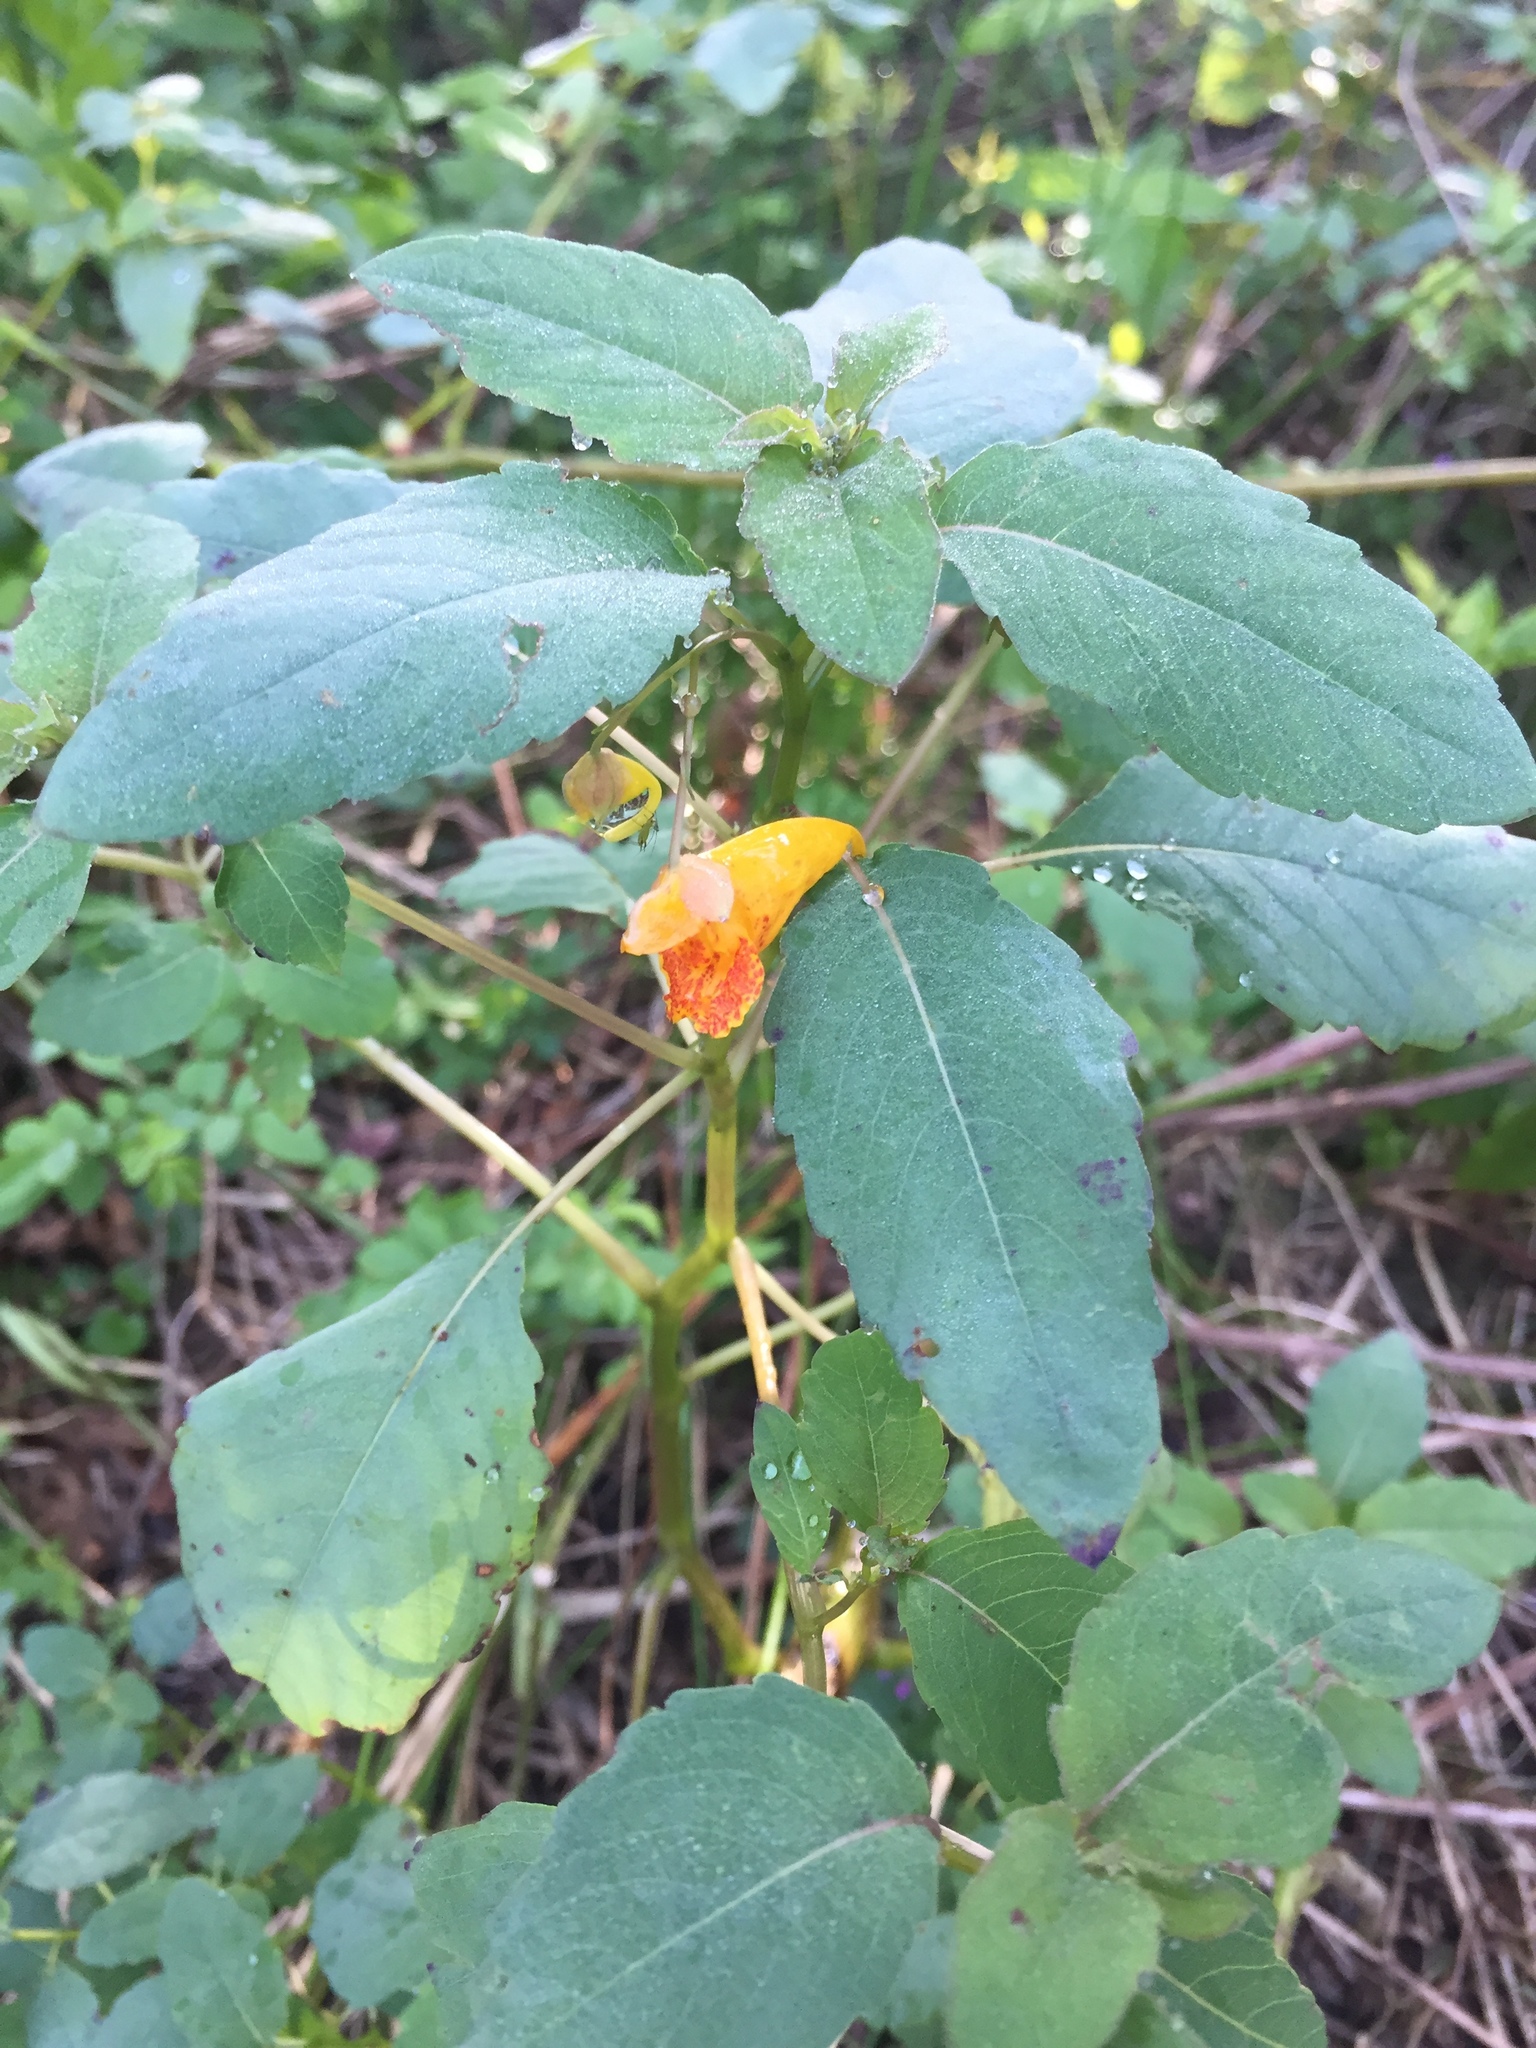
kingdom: Plantae
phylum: Tracheophyta
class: Magnoliopsida
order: Ericales
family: Balsaminaceae
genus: Impatiens
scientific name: Impatiens capensis
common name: Orange balsam
